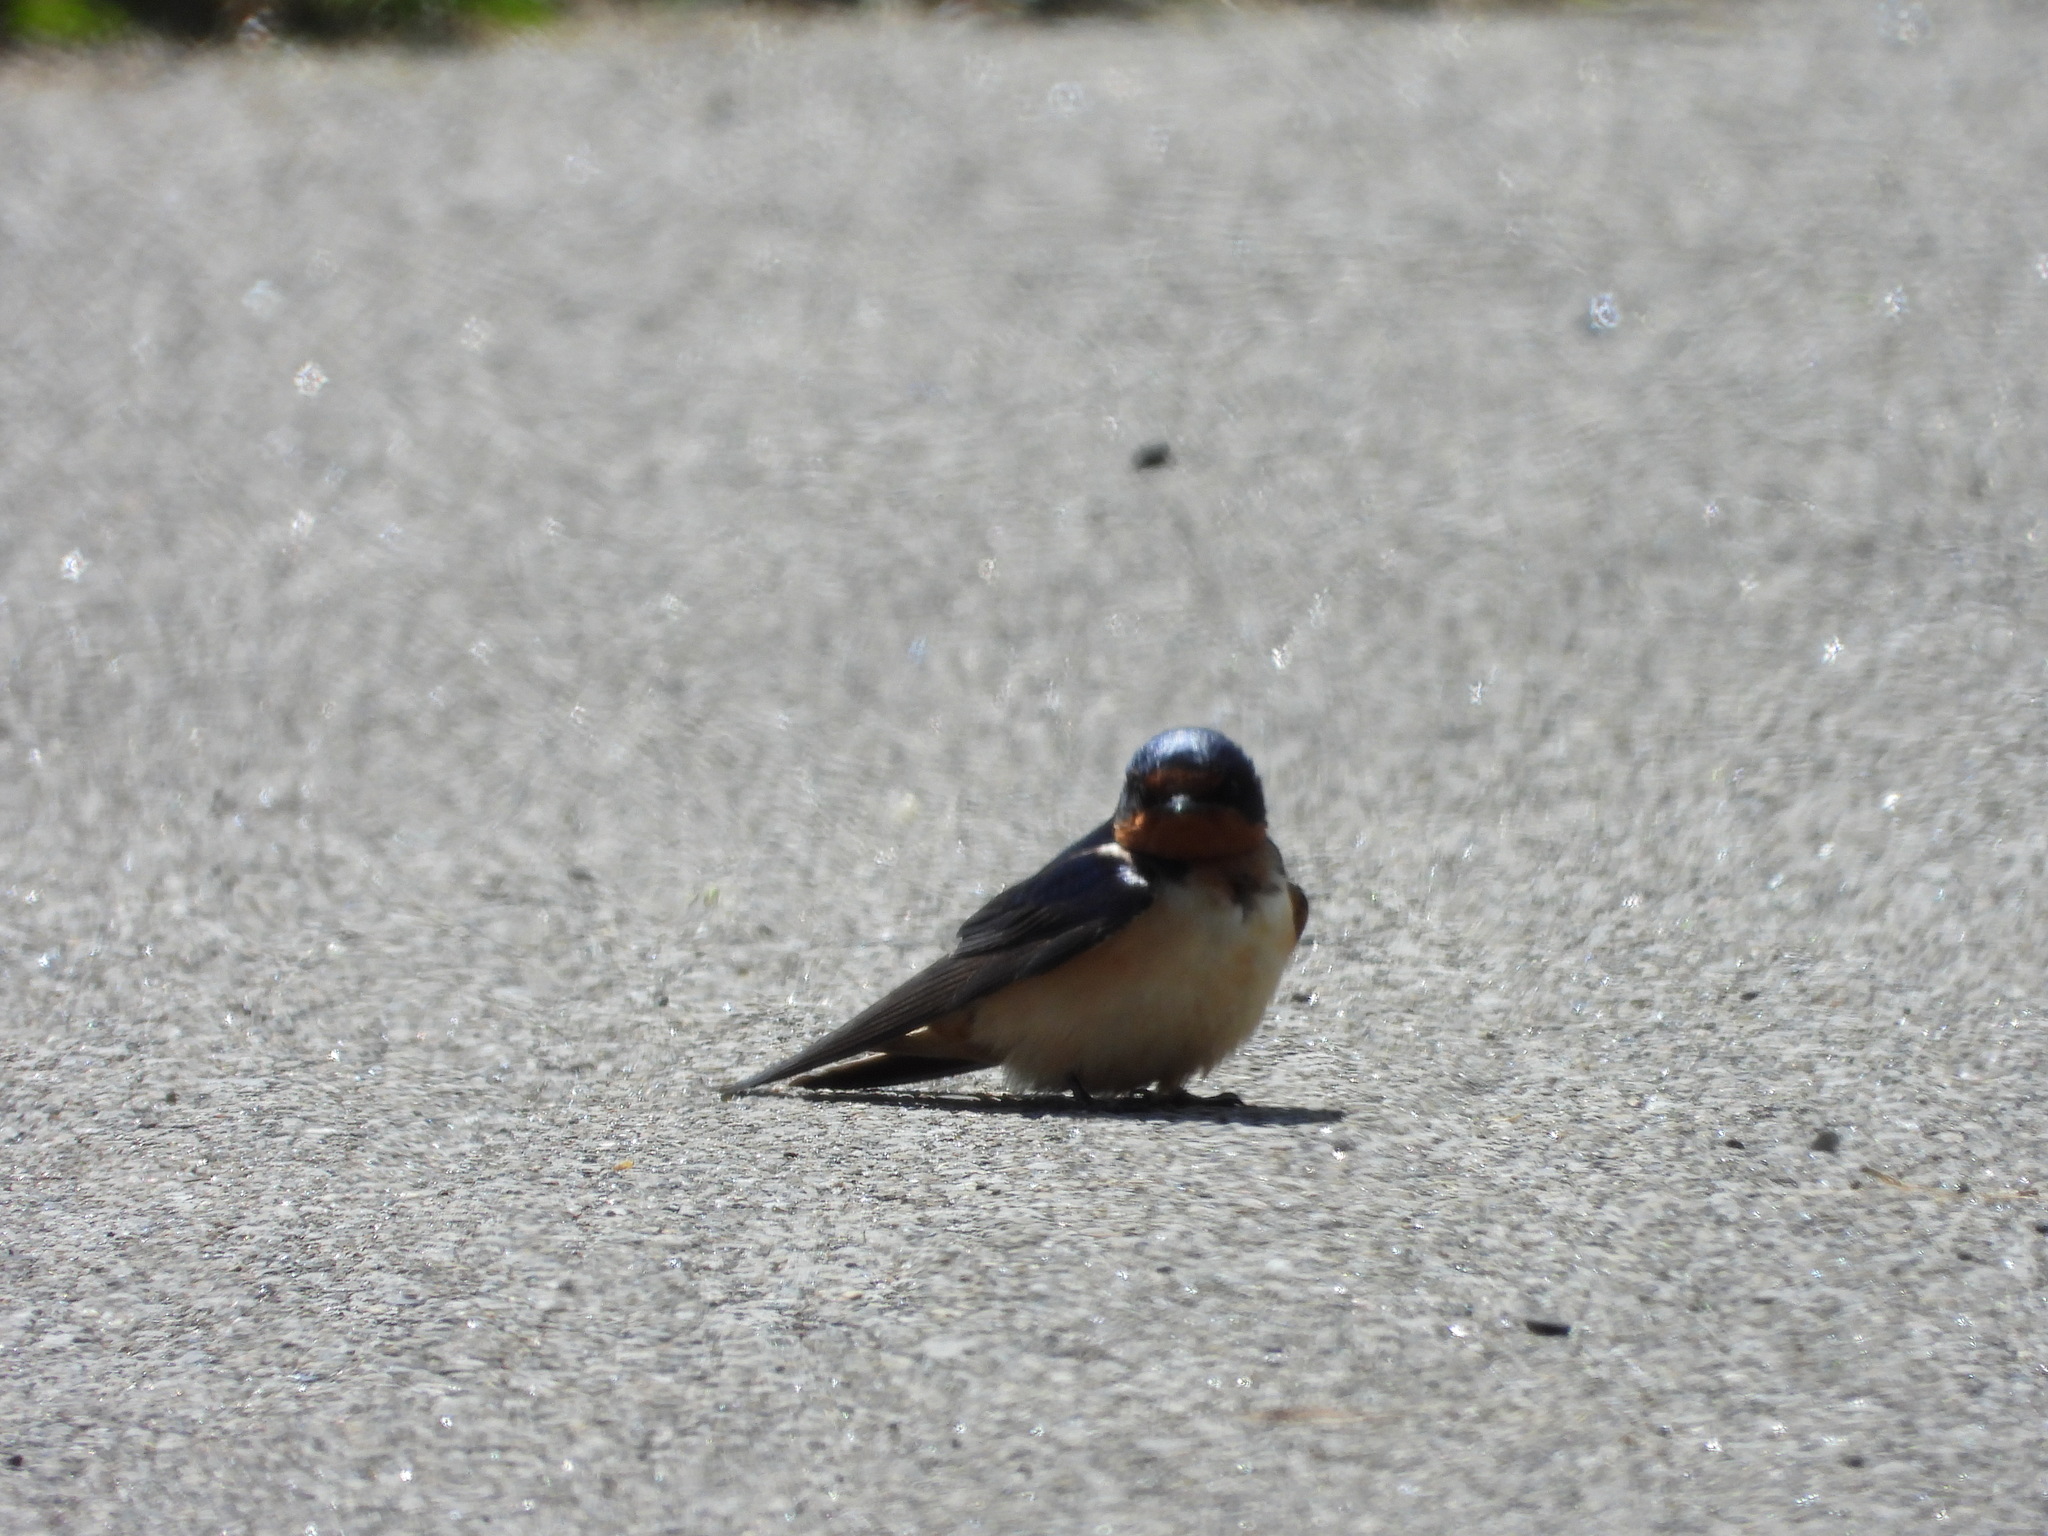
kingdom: Animalia
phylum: Chordata
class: Aves
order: Passeriformes
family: Hirundinidae
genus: Hirundo
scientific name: Hirundo rustica
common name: Barn swallow
